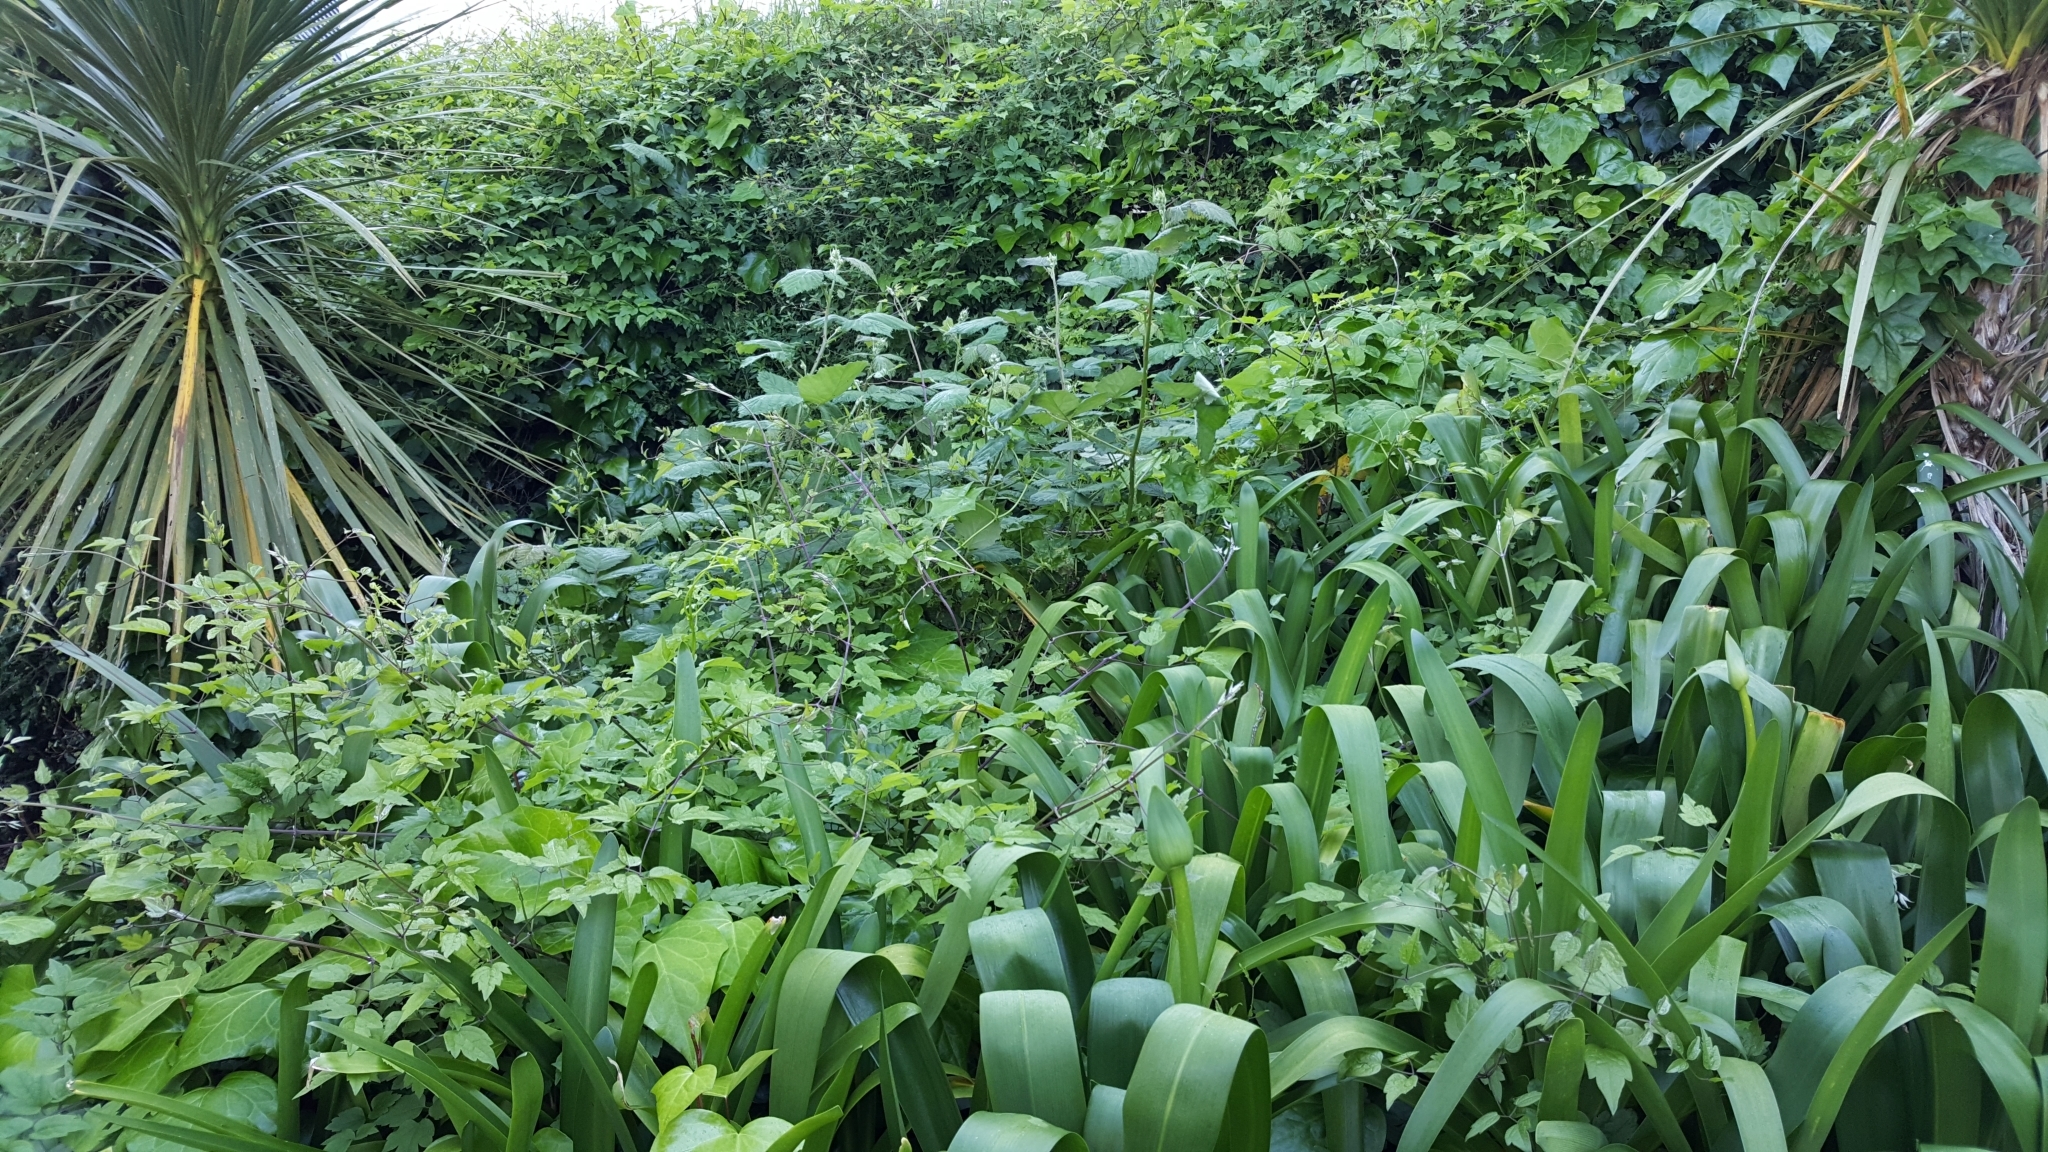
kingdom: Plantae
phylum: Tracheophyta
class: Magnoliopsida
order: Ranunculales
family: Ranunculaceae
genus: Clematis
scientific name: Clematis vitalba
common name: Evergreen clematis
